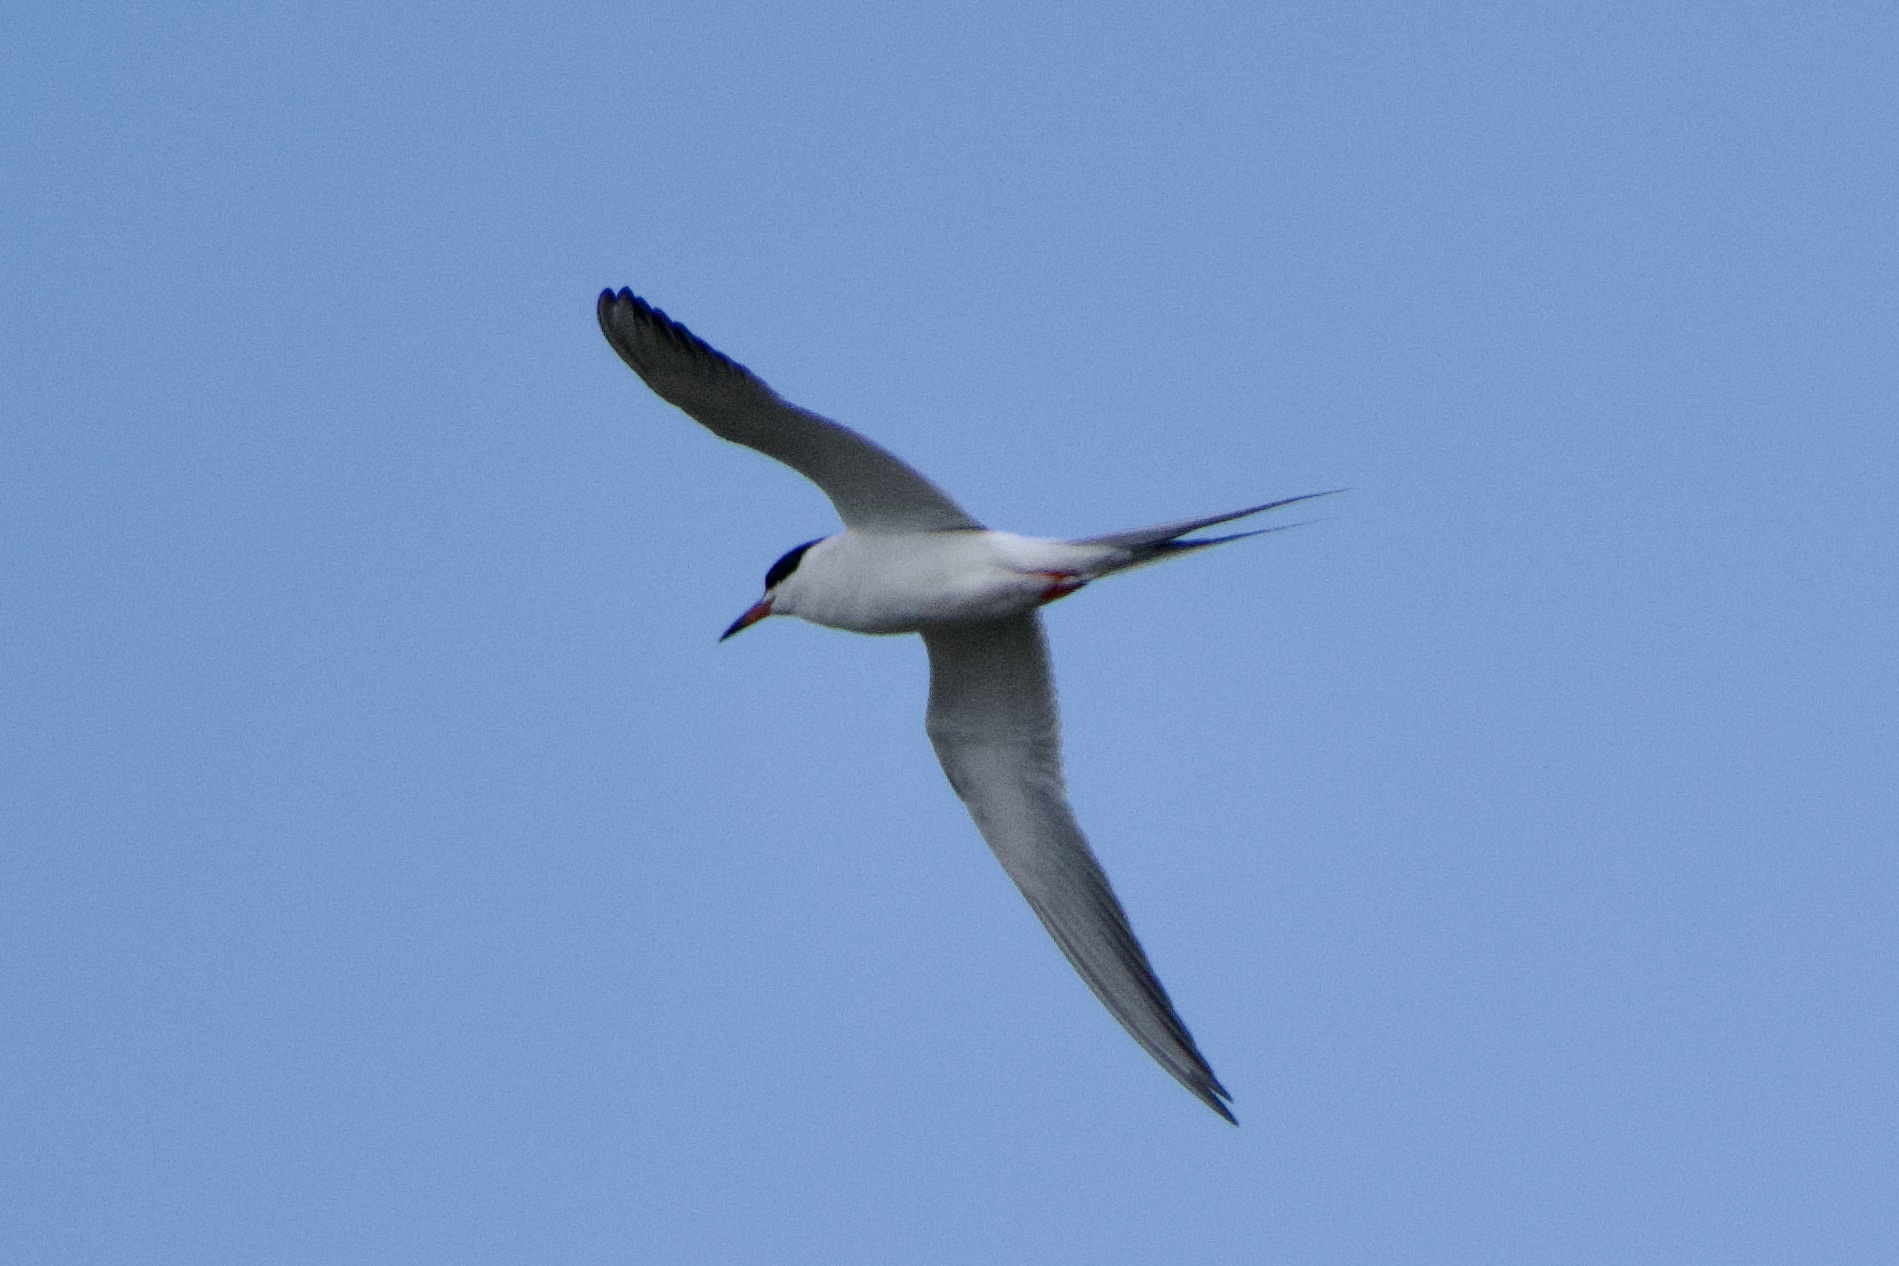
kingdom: Animalia
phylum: Chordata
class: Aves
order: Charadriiformes
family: Laridae
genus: Sterna
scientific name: Sterna forsteri
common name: Forster's tern
